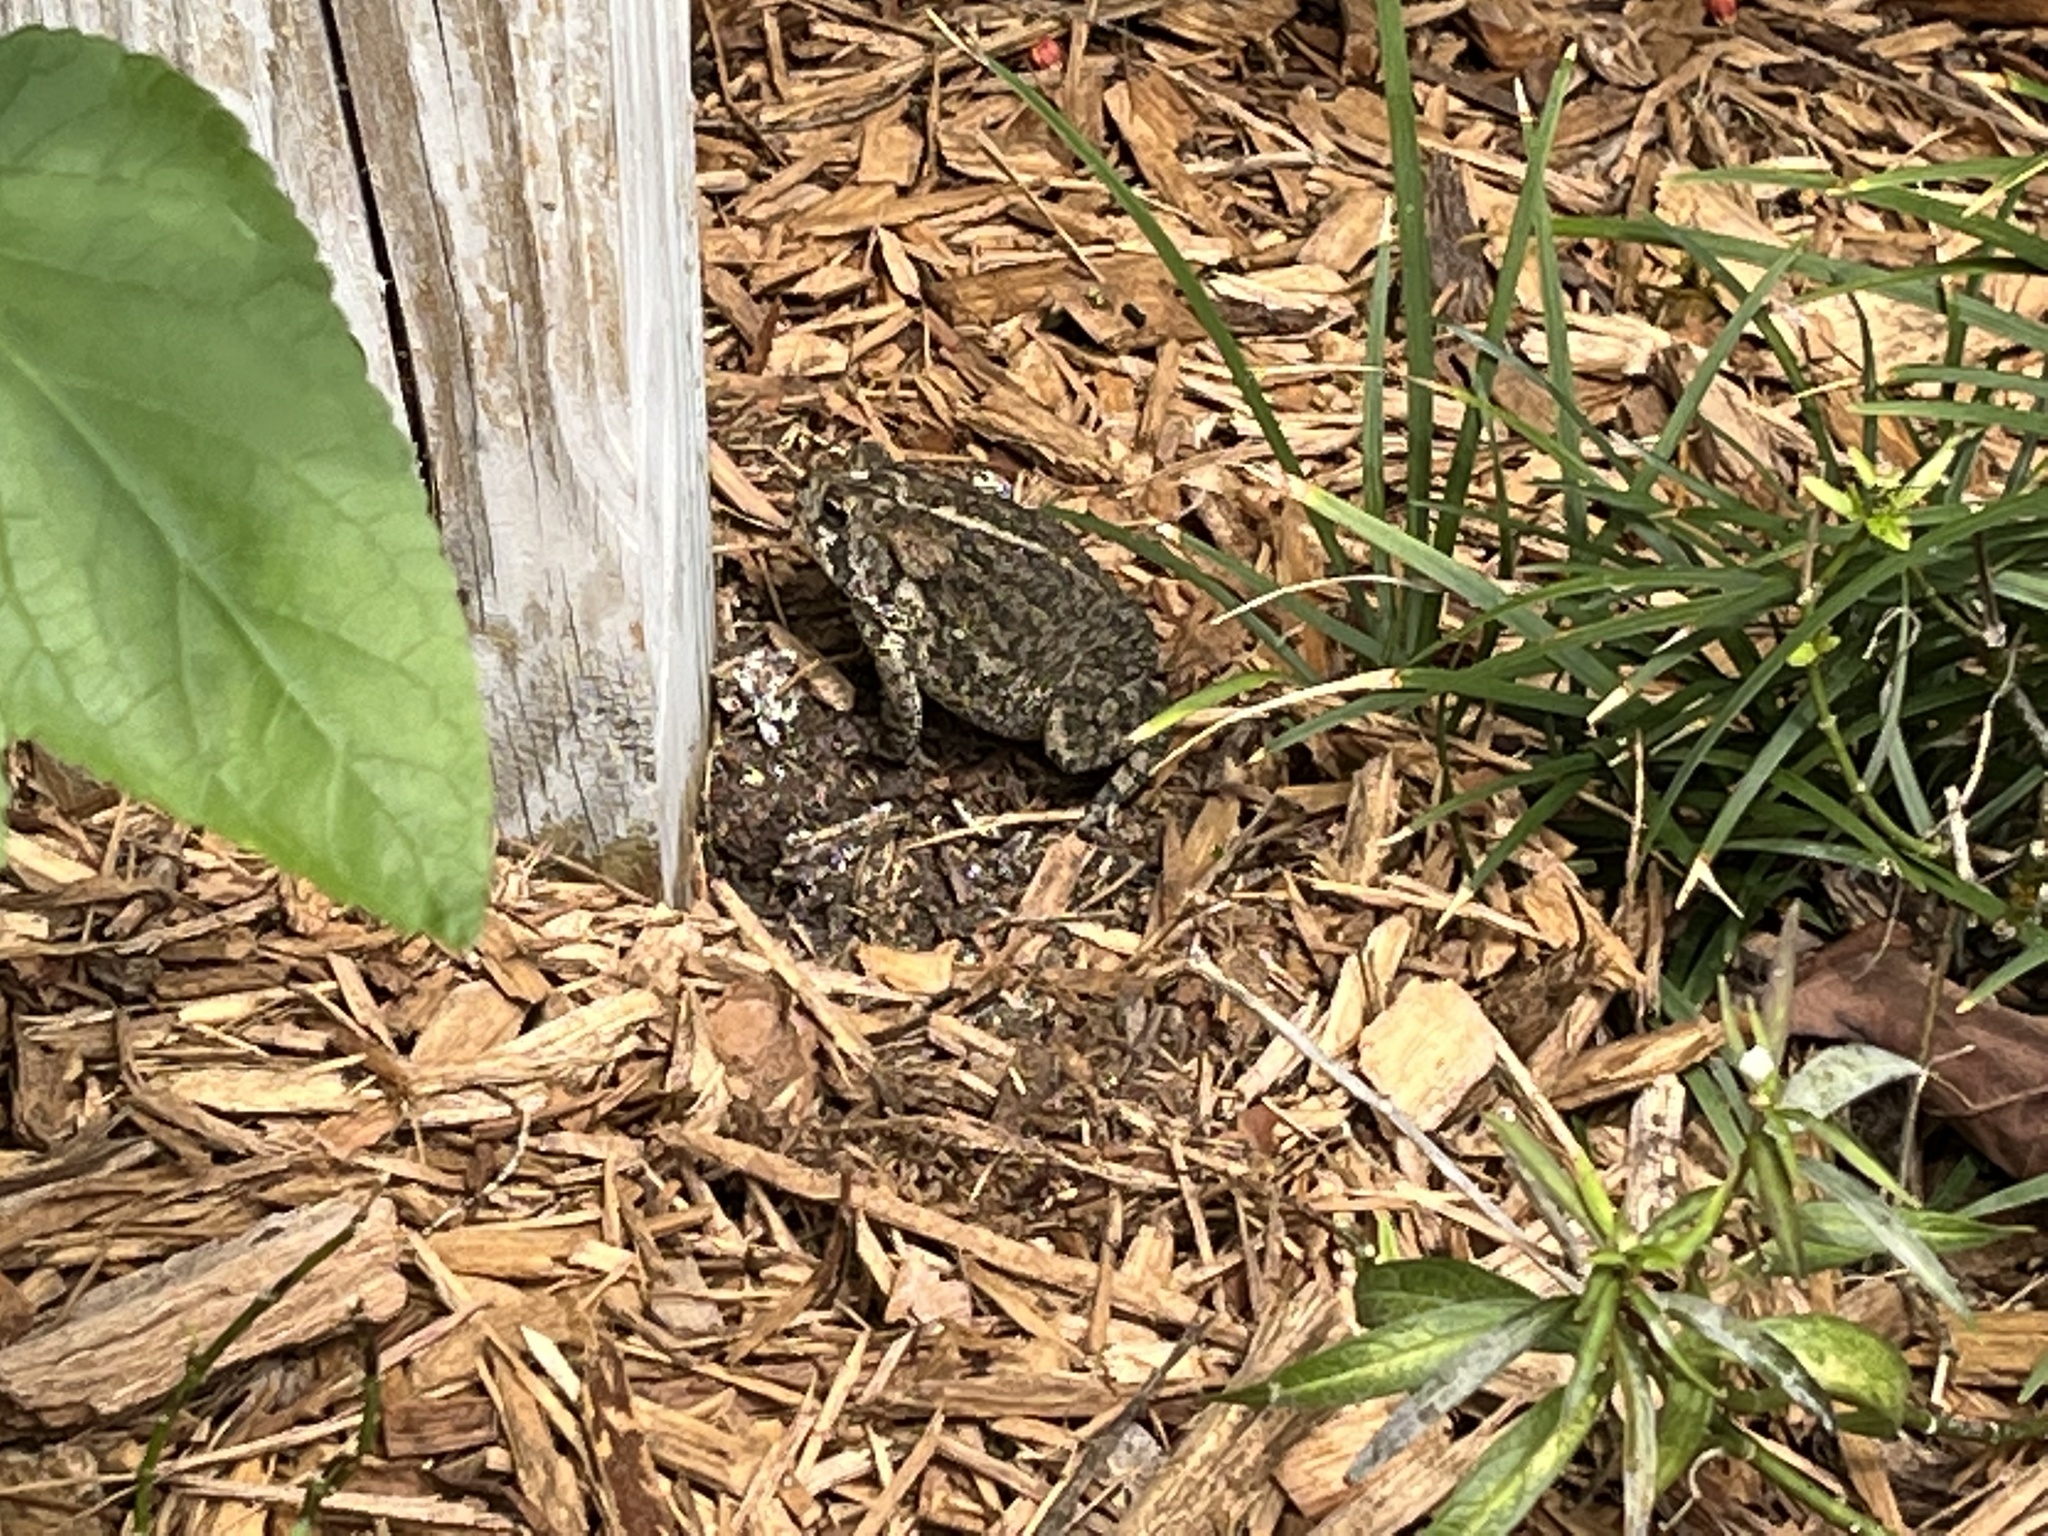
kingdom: Animalia
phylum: Chordata
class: Amphibia
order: Anura
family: Bufonidae
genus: Anaxyrus
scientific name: Anaxyrus terrestris
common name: Southern toad
